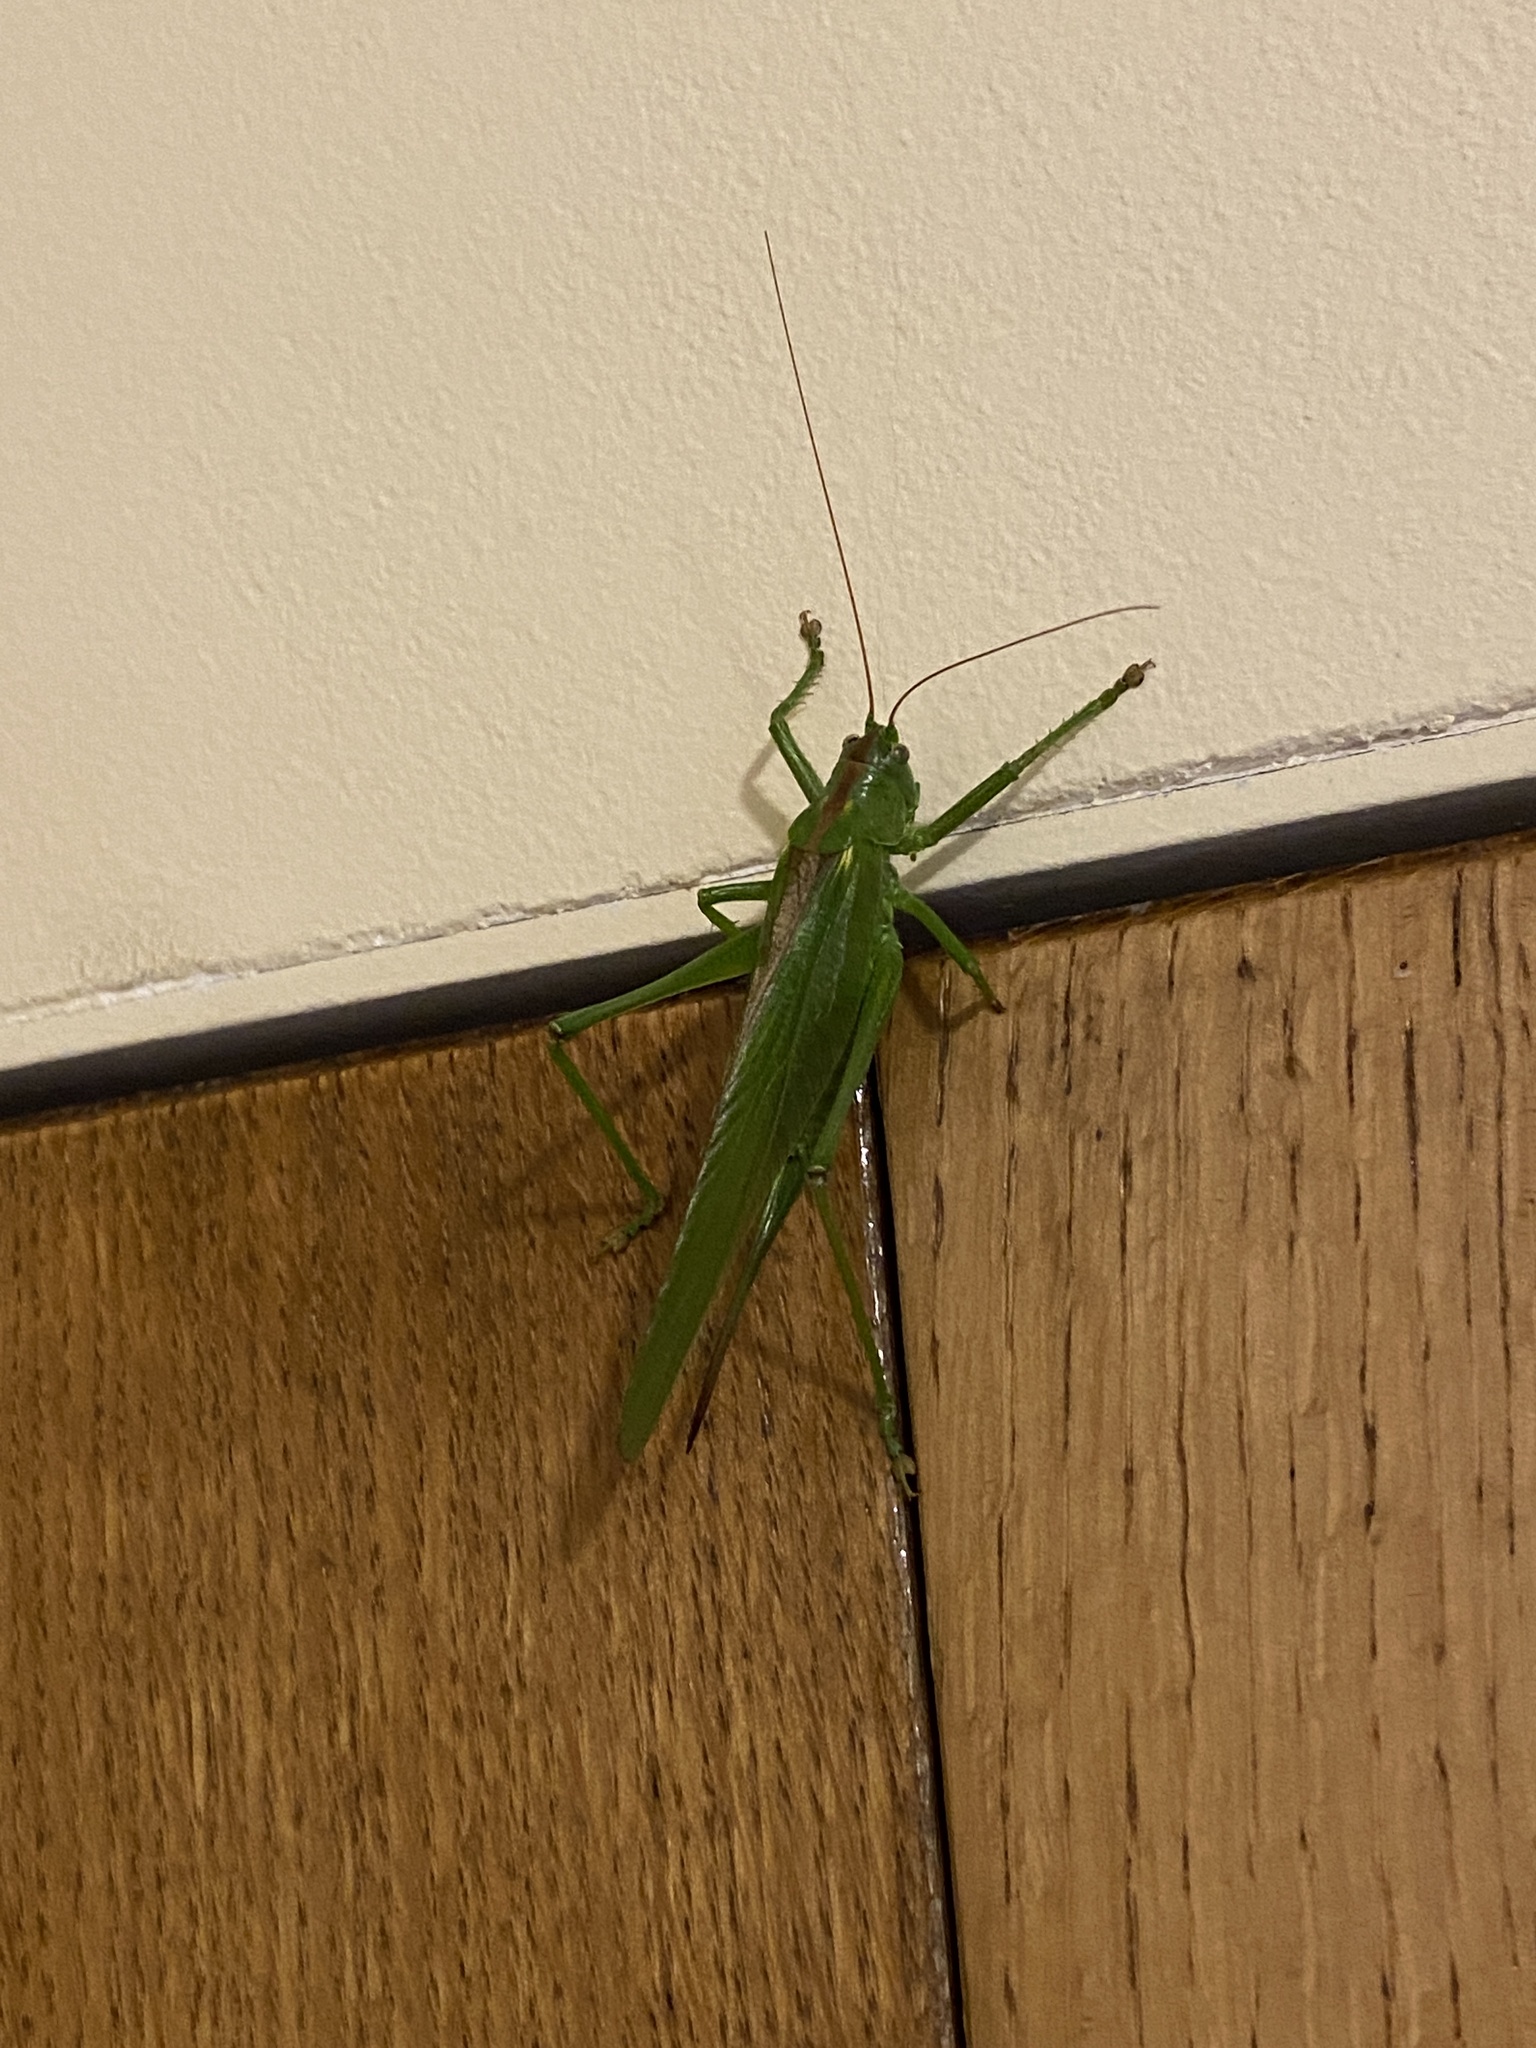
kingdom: Animalia
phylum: Arthropoda
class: Insecta
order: Orthoptera
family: Tettigoniidae
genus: Tettigonia
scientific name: Tettigonia viridissima
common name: Great green bush-cricket
